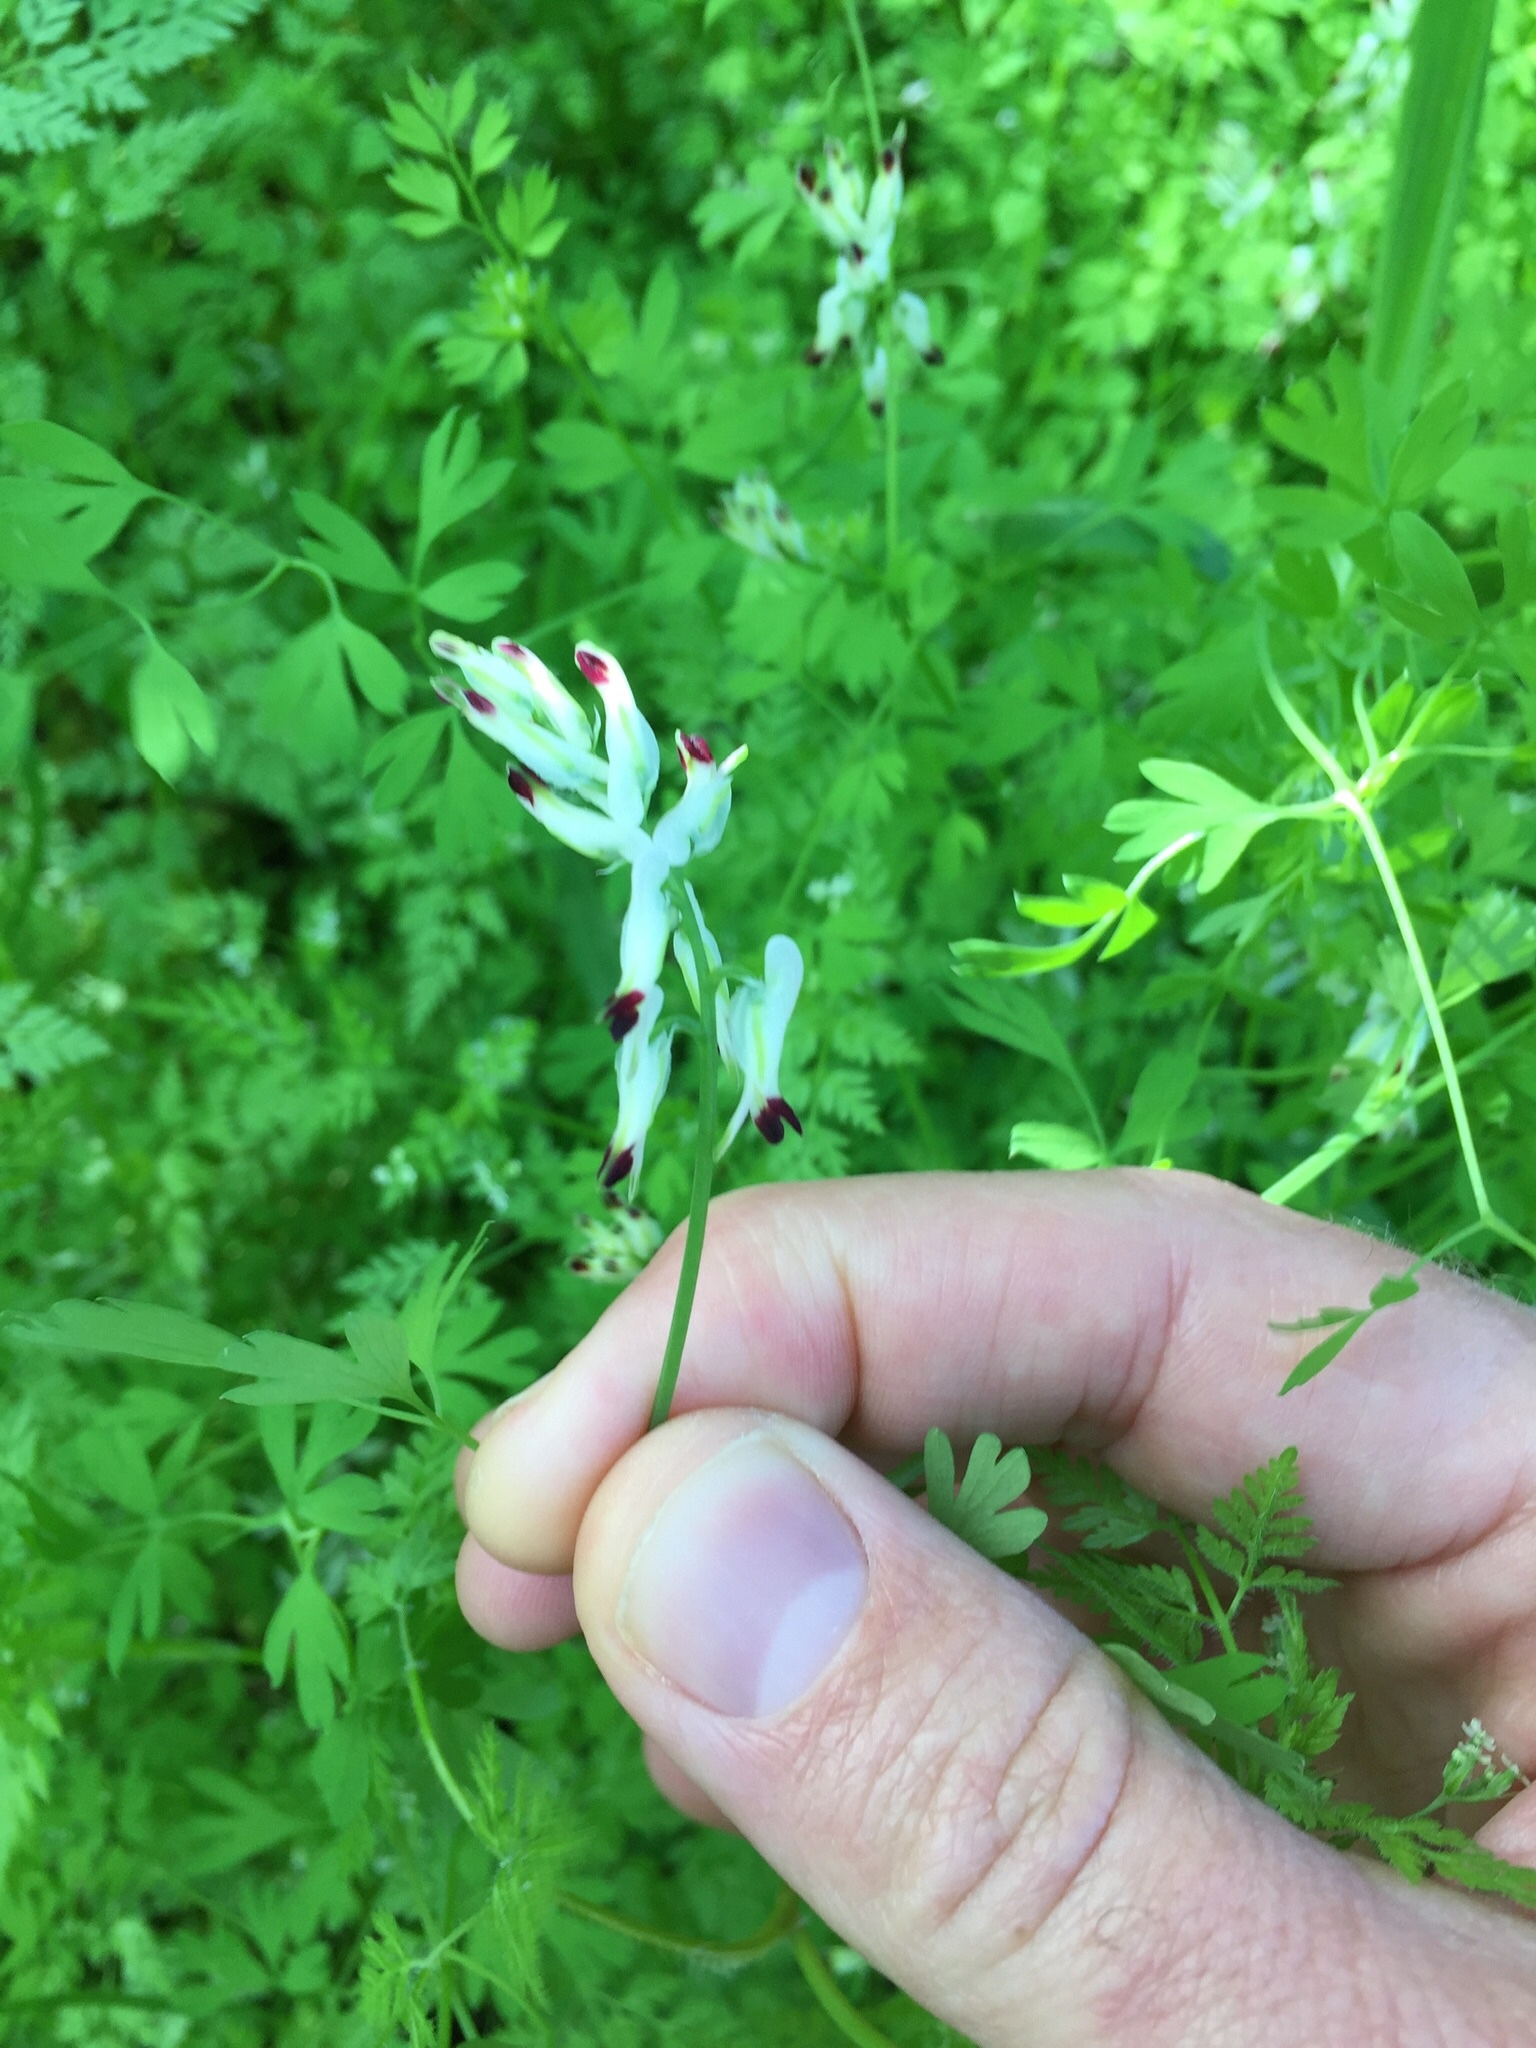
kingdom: Plantae
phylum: Tracheophyta
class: Magnoliopsida
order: Ranunculales
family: Papaveraceae
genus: Fumaria
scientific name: Fumaria capreolata
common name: White ramping-fumitory
